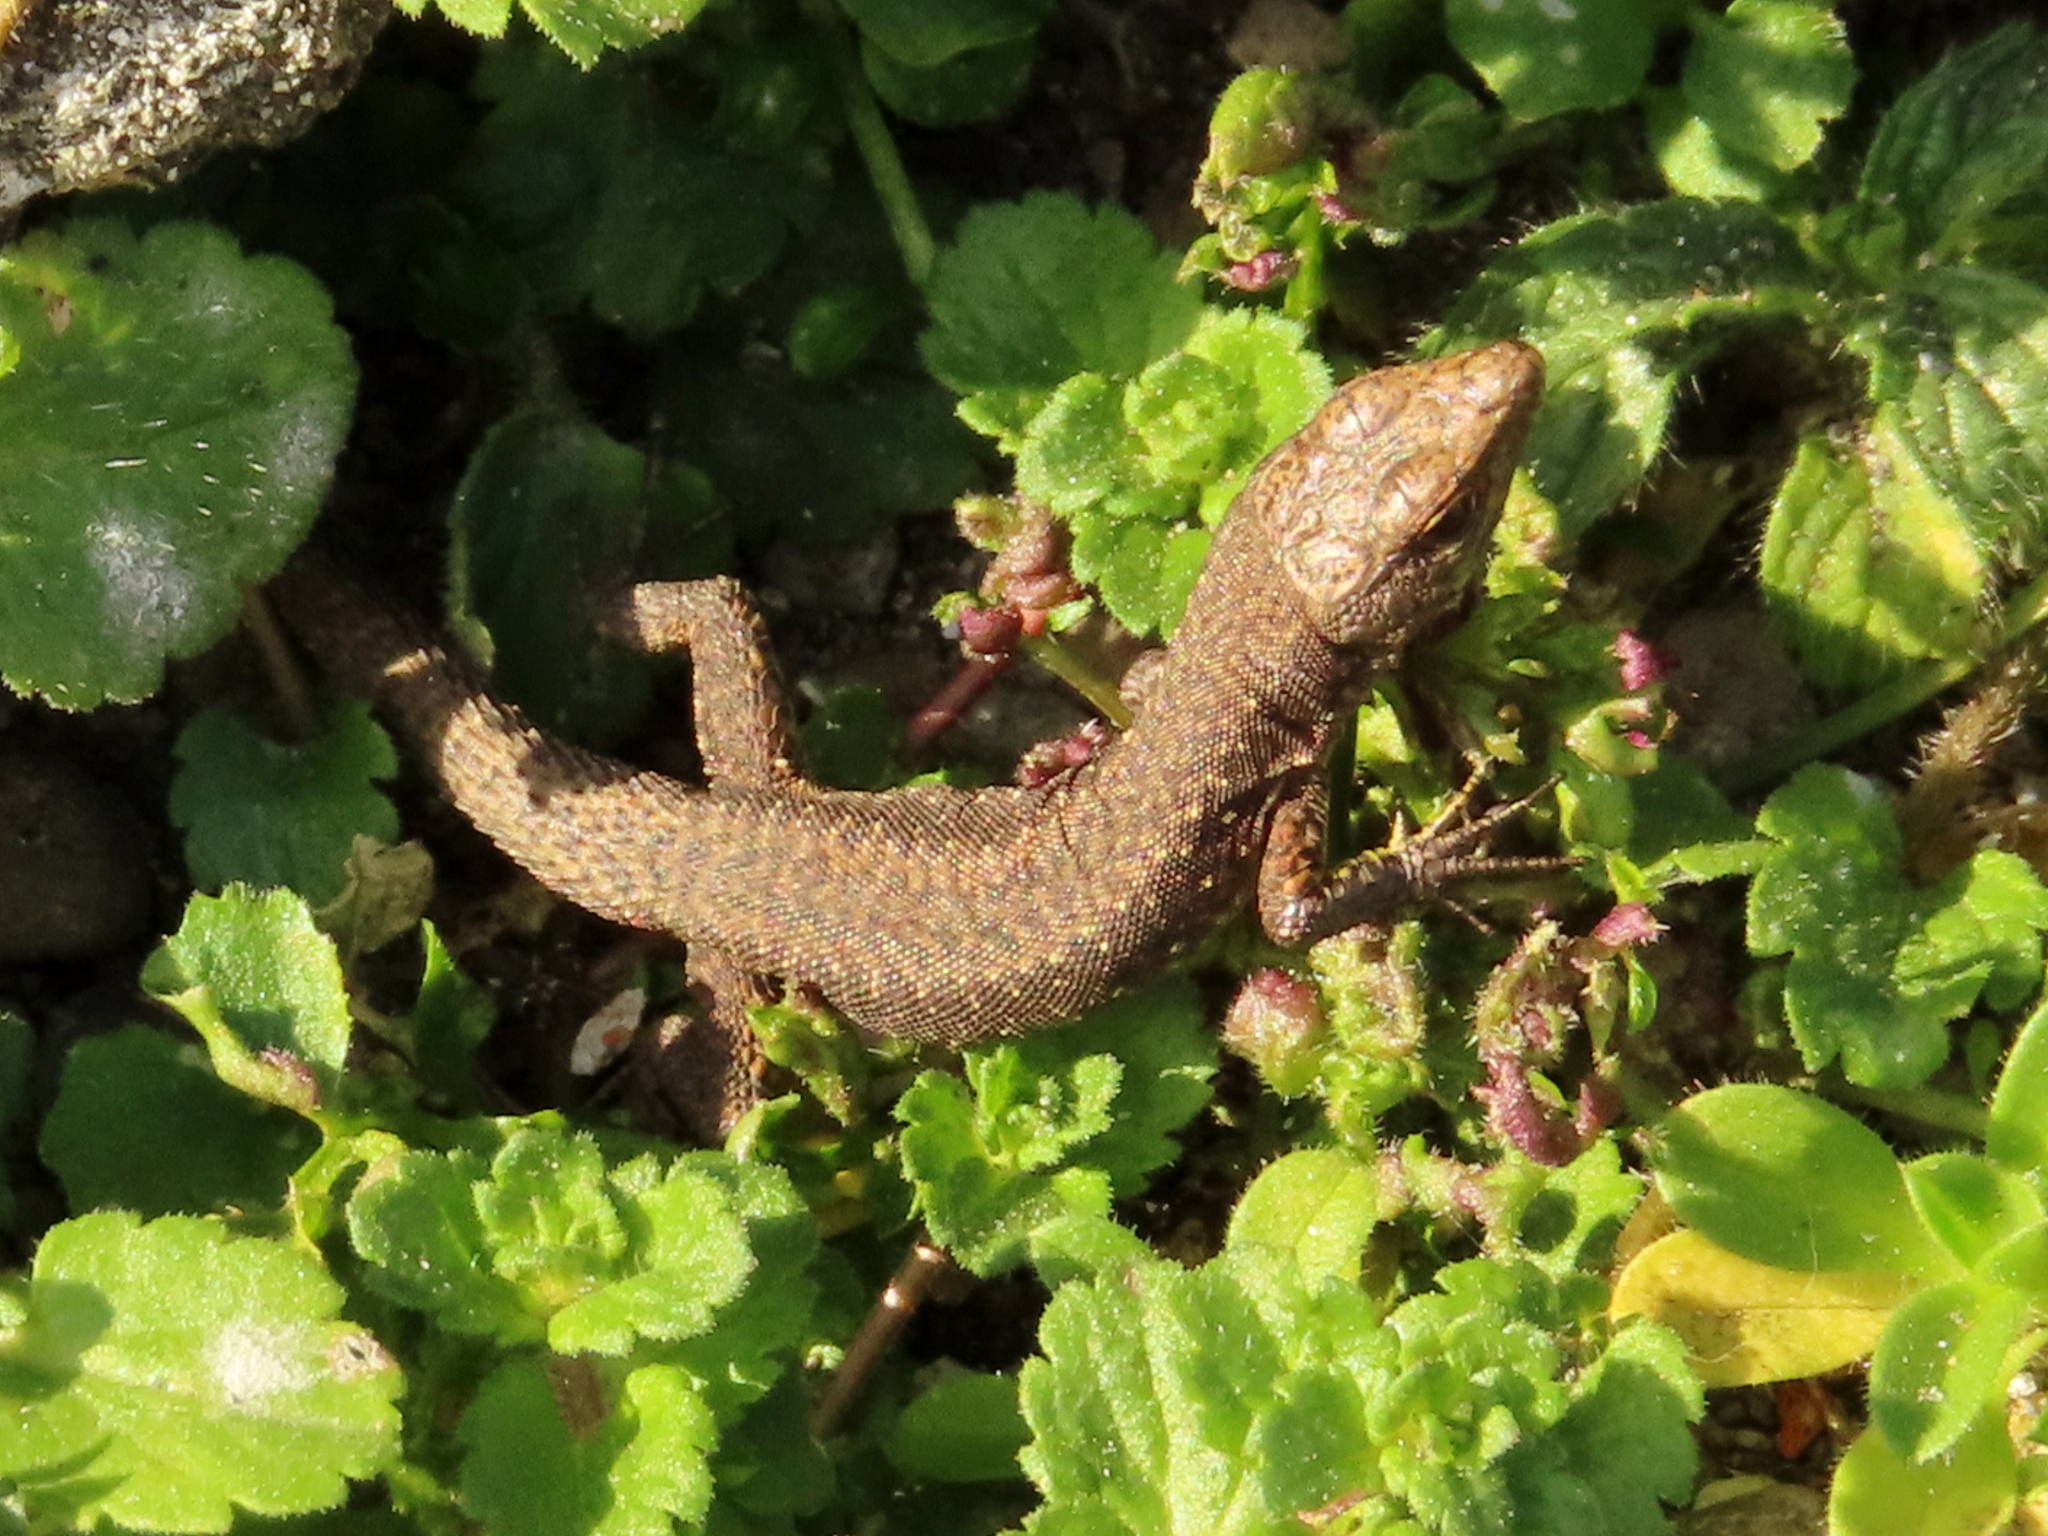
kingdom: Animalia
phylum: Chordata
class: Squamata
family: Lacertidae
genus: Darevskia
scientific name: Darevskia rudis
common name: Spiny-tailed lizard
